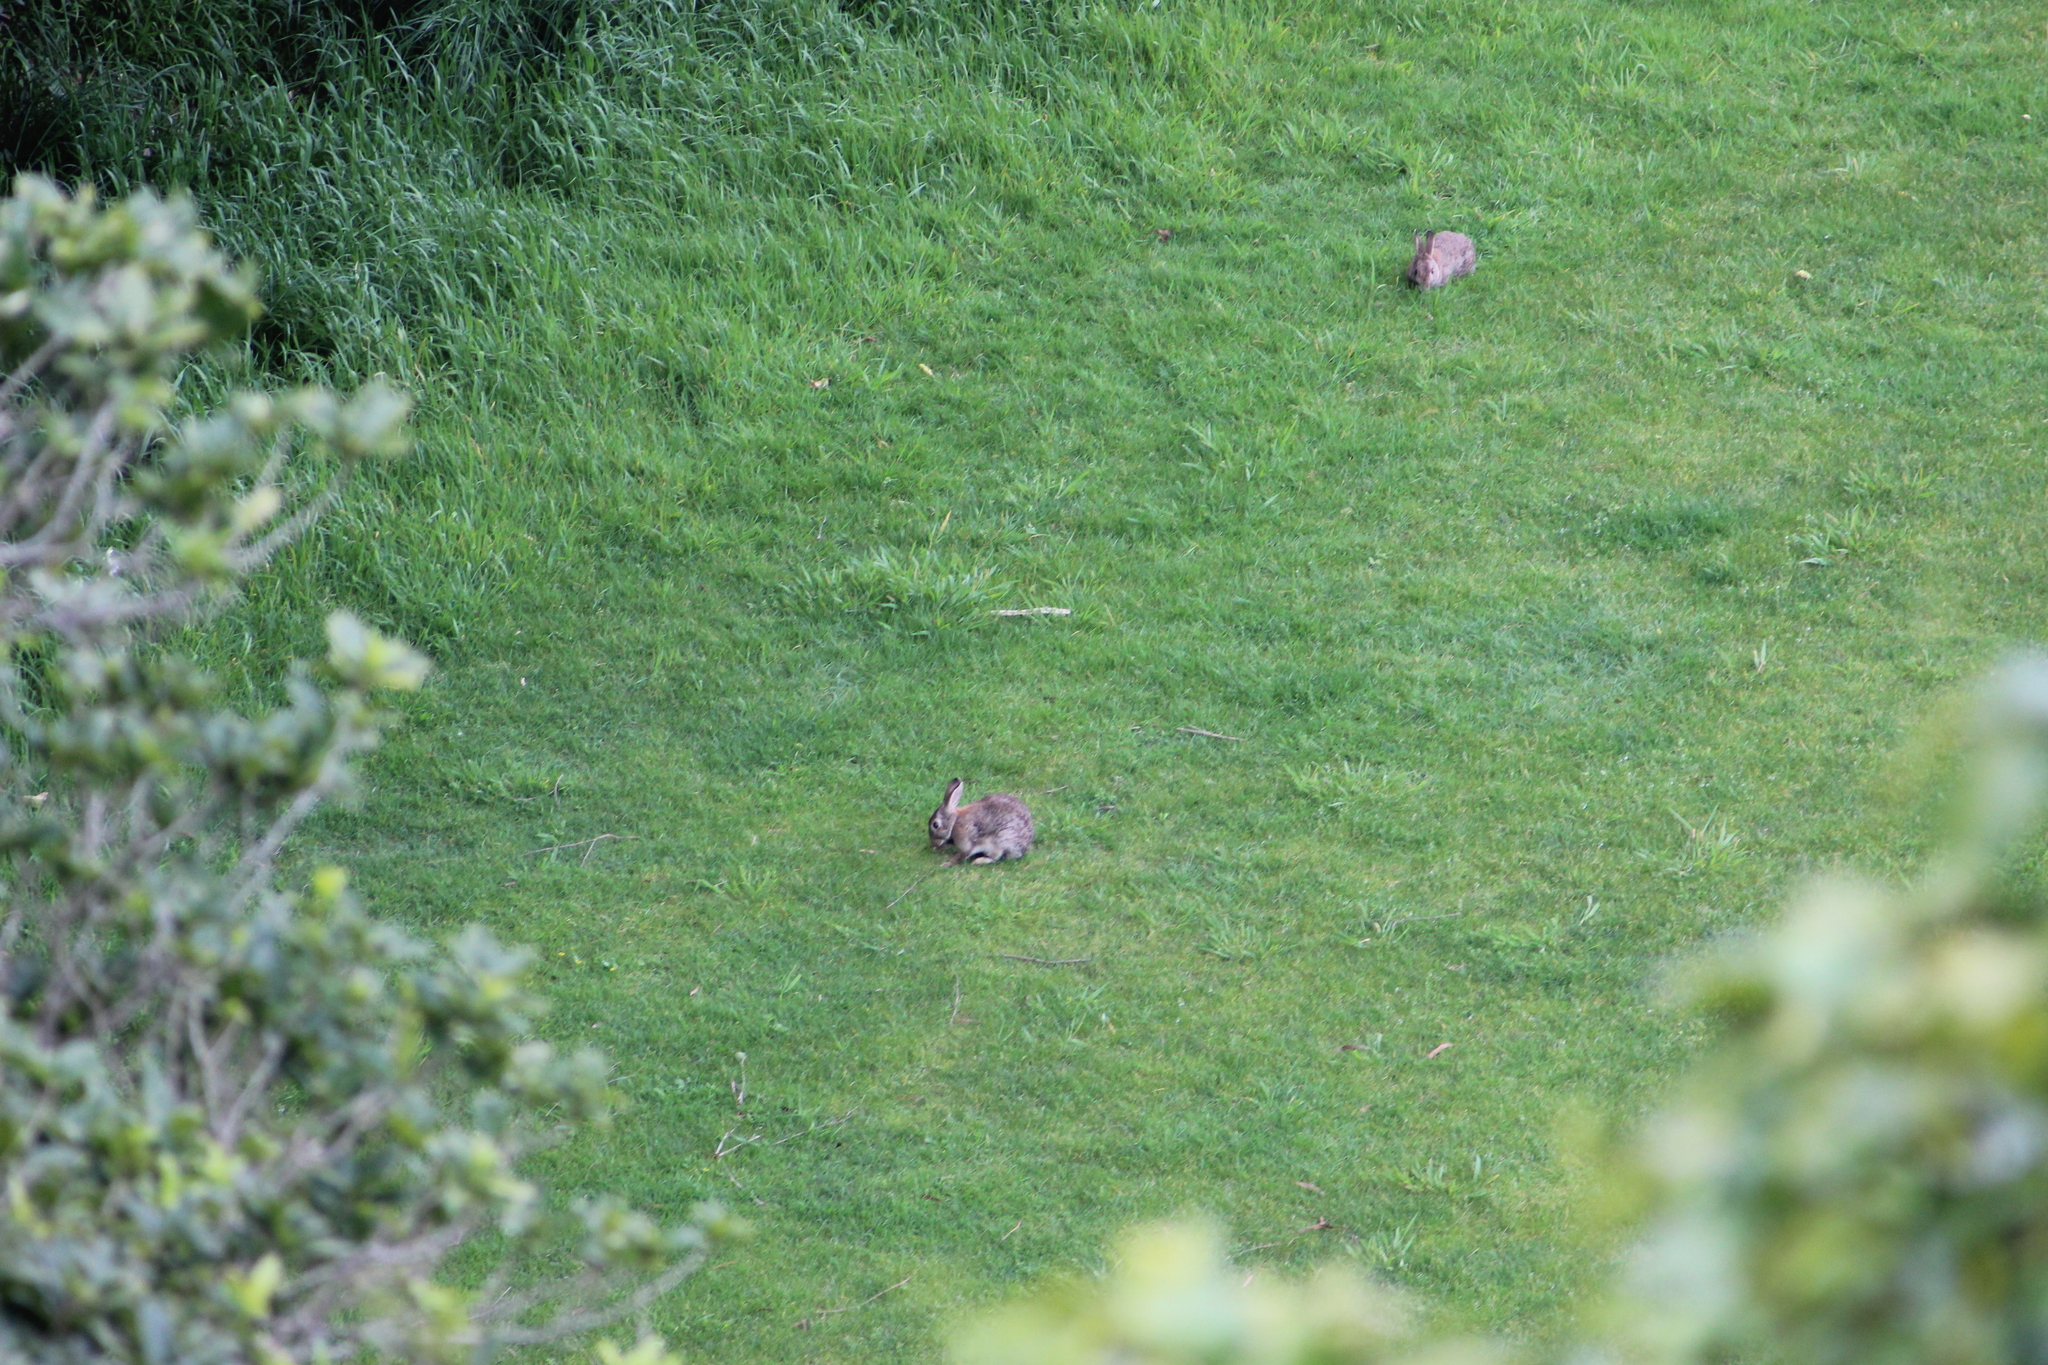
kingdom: Animalia
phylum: Chordata
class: Mammalia
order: Lagomorpha
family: Leporidae
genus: Oryctolagus
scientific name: Oryctolagus cuniculus
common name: European rabbit
